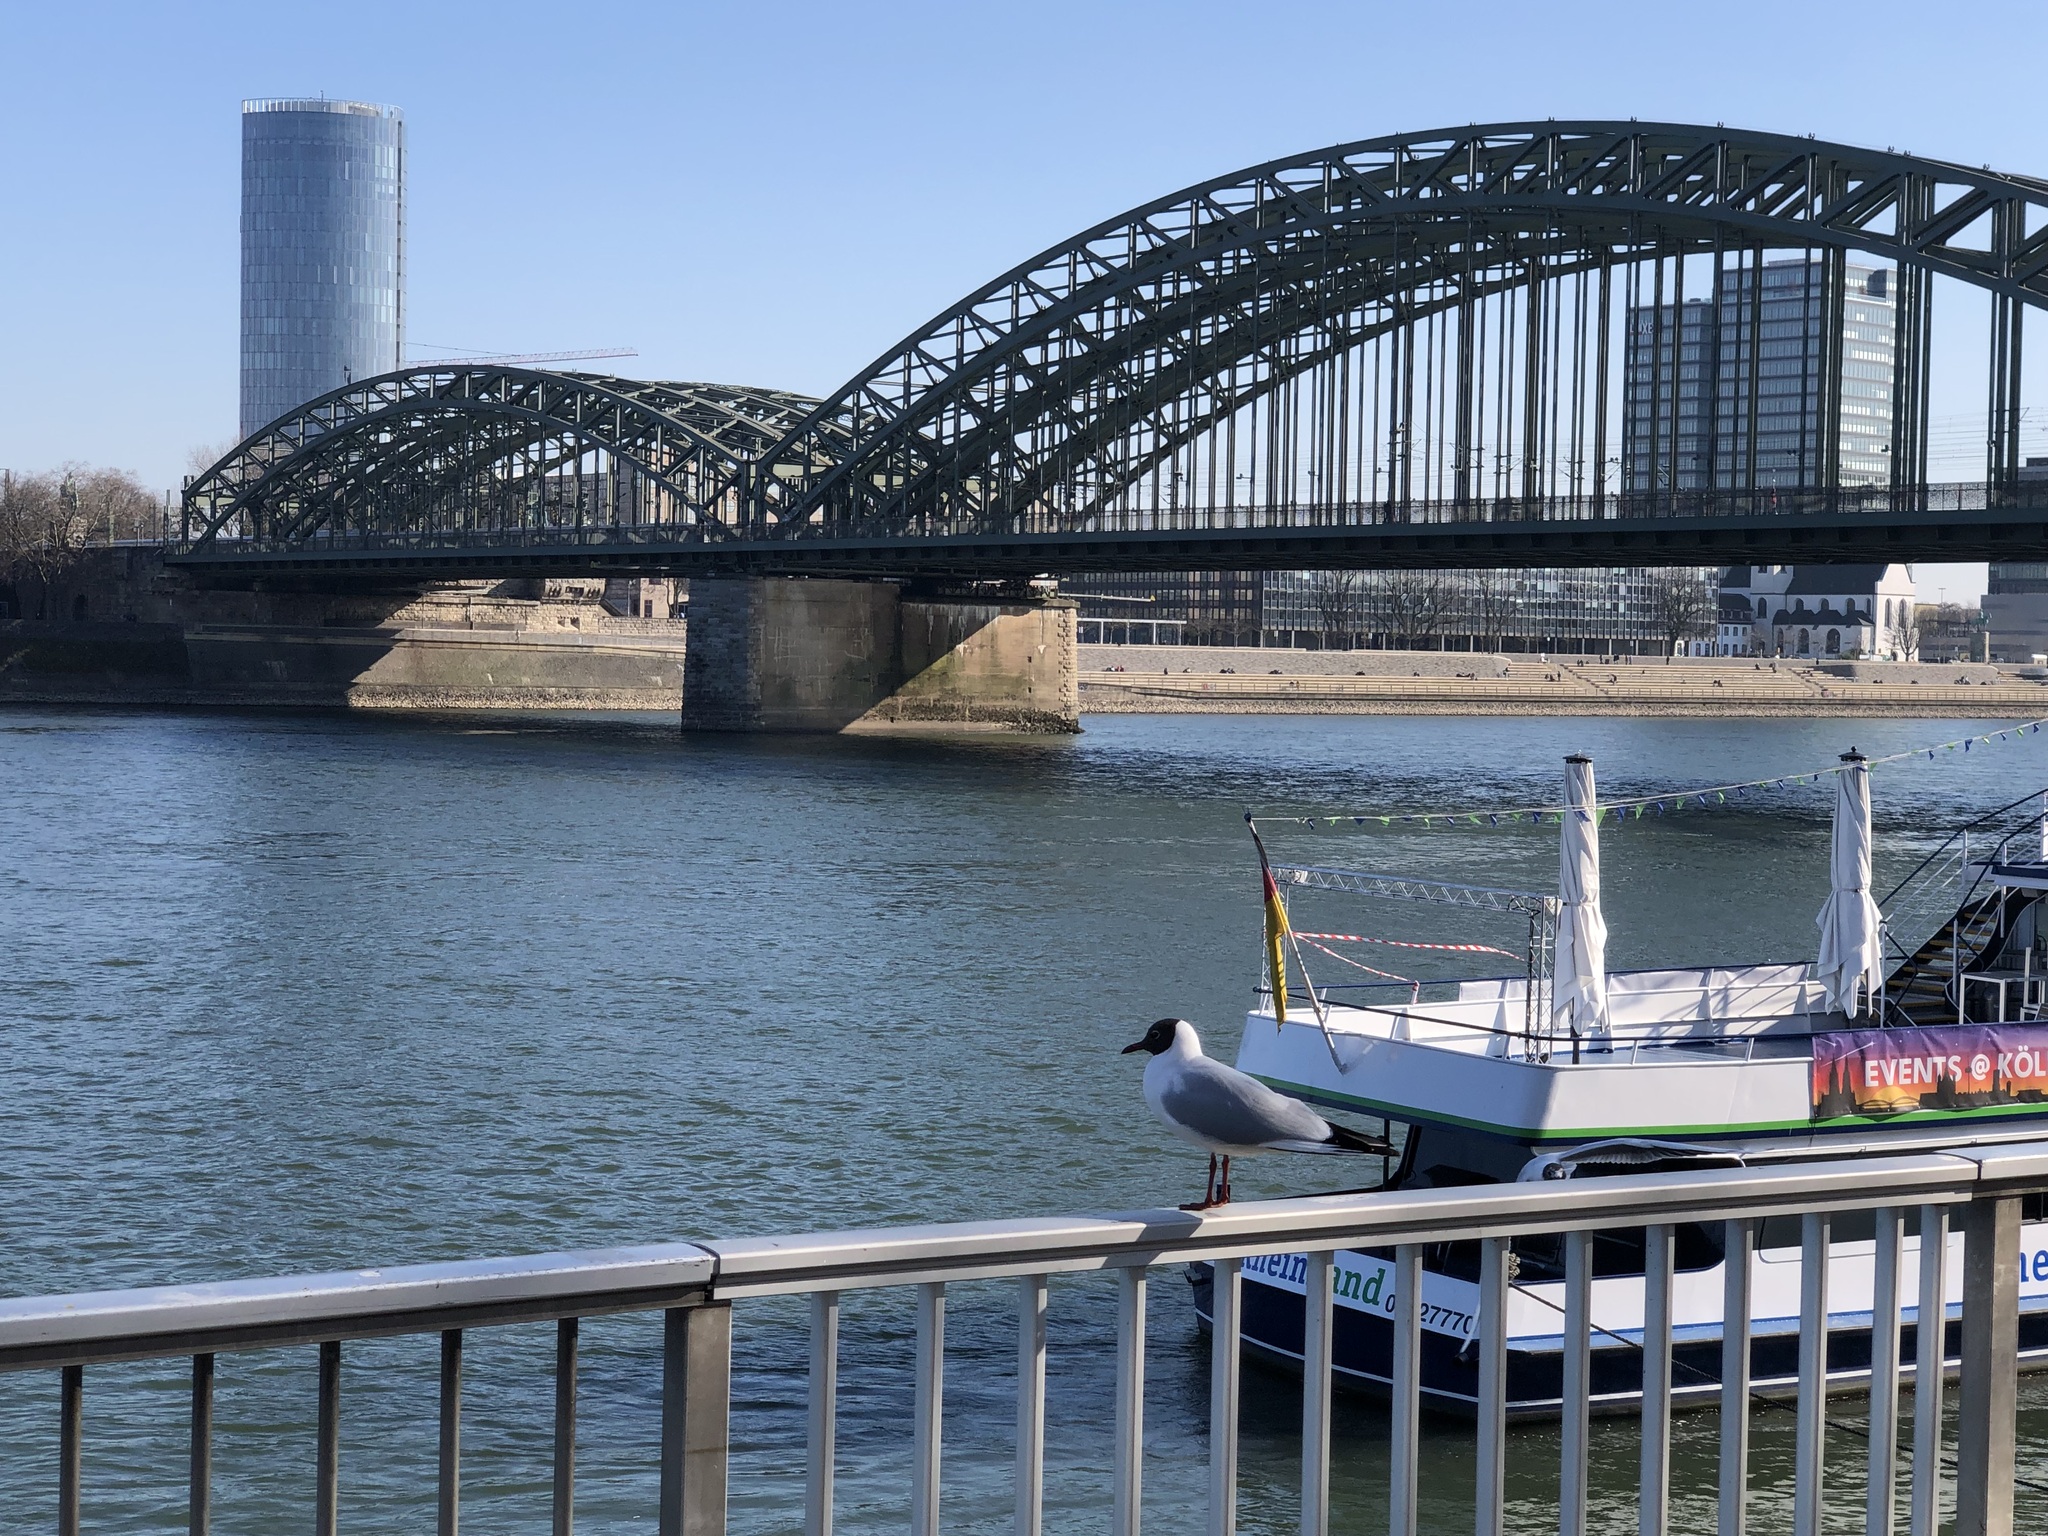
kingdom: Animalia
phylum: Chordata
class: Aves
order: Charadriiformes
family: Laridae
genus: Chroicocephalus
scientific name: Chroicocephalus ridibundus
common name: Black-headed gull
